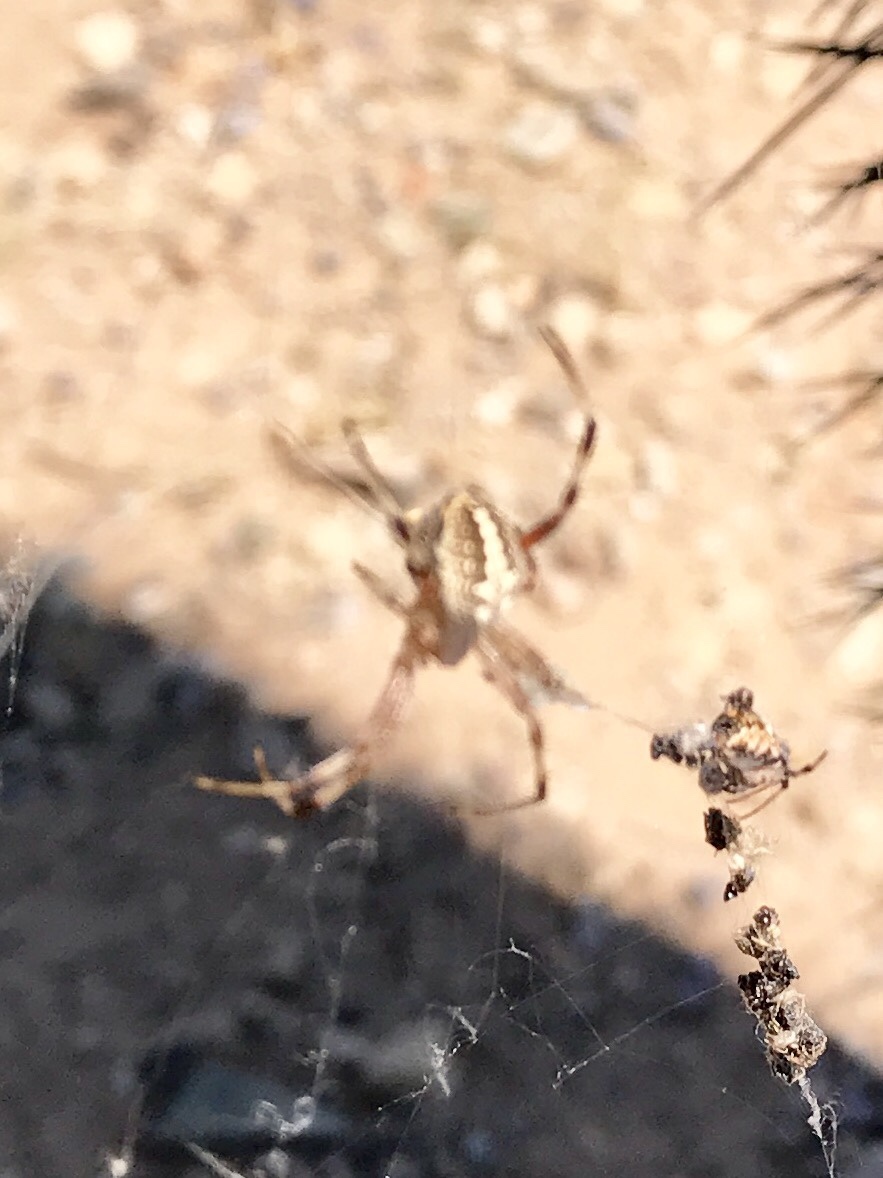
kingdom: Animalia
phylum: Arthropoda
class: Arachnida
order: Araneae
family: Araneidae
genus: Neoscona
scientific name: Neoscona oaxacensis
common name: Orb weavers
